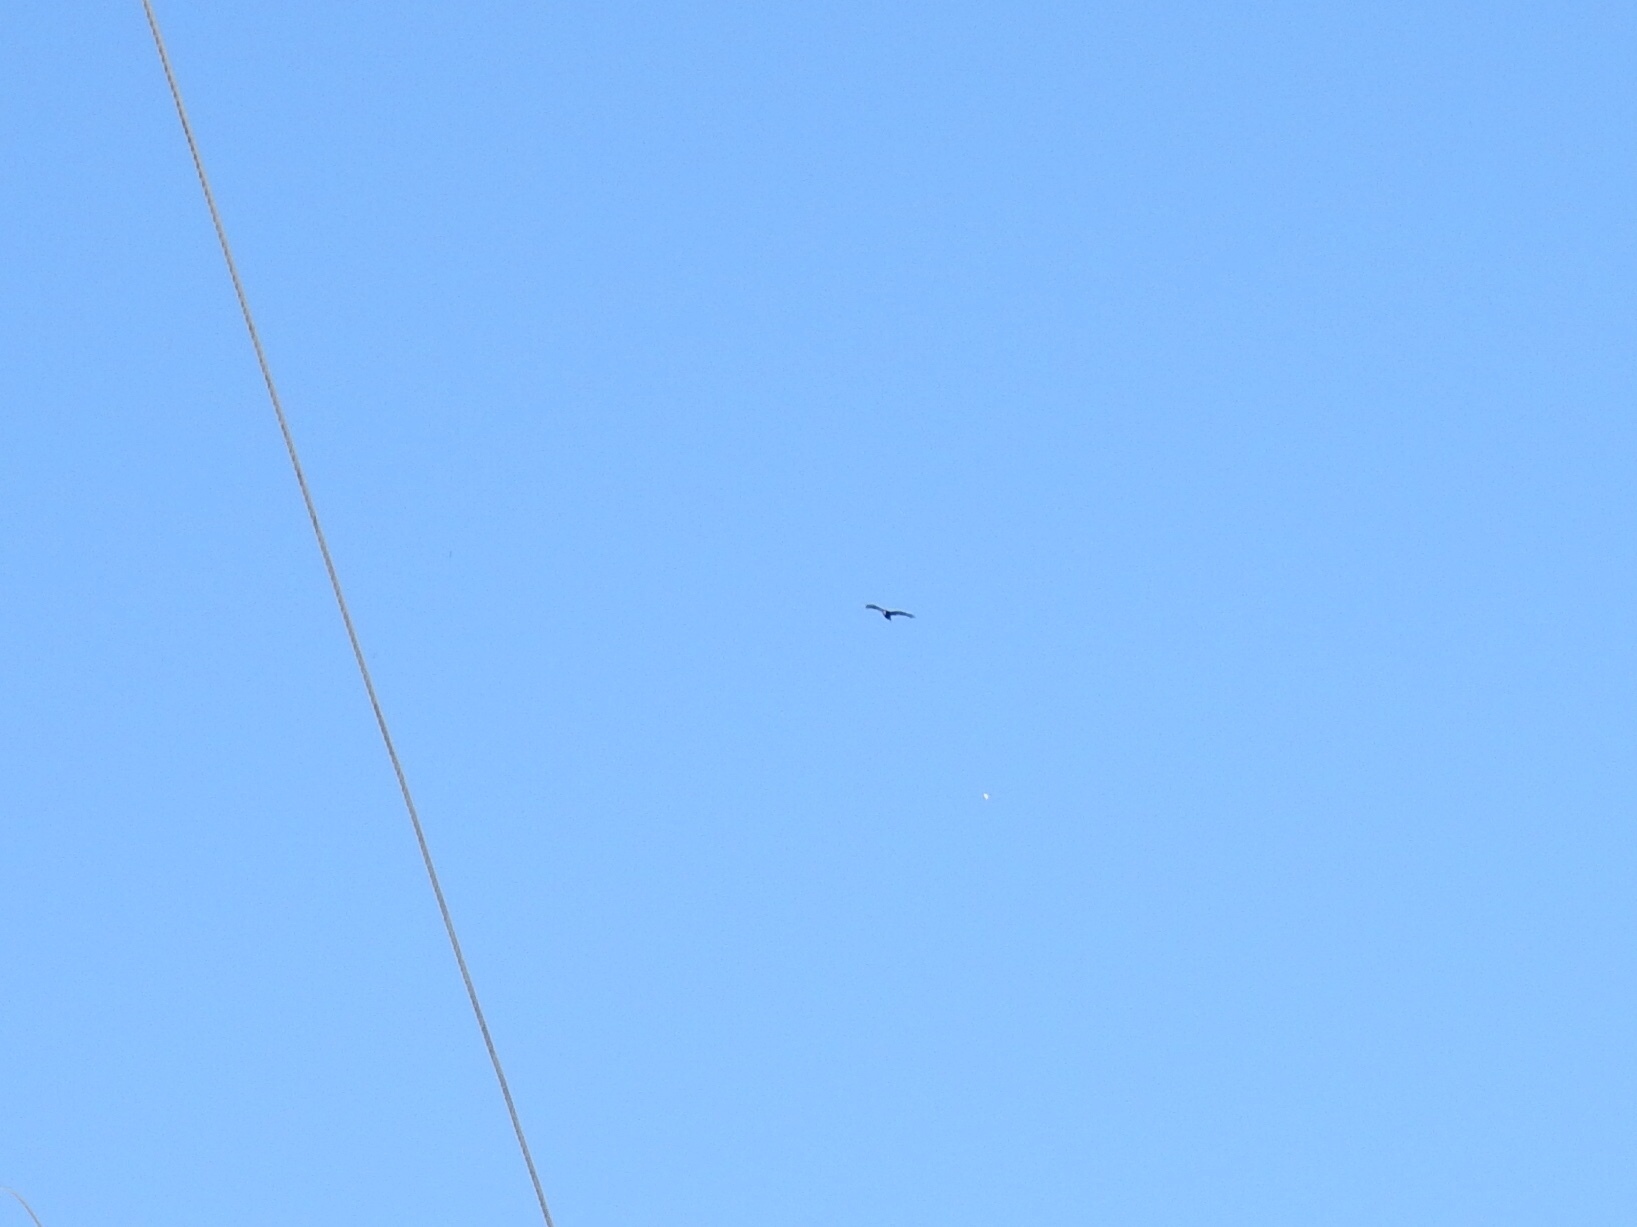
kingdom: Animalia
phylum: Chordata
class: Aves
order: Accipitriformes
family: Cathartidae
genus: Cathartes
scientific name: Cathartes aura
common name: Turkey vulture
